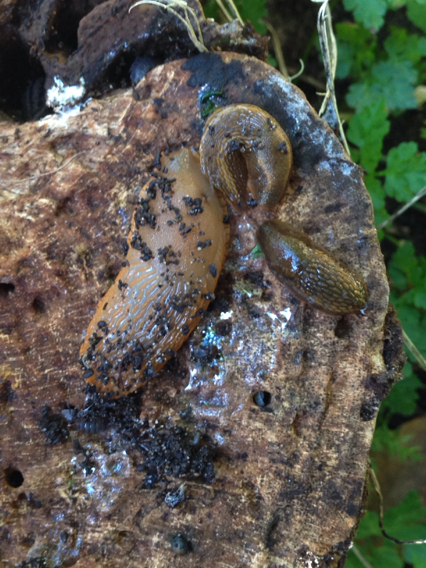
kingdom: Animalia
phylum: Mollusca
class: Gastropoda
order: Stylommatophora
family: Arionidae
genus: Arion
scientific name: Arion rufus
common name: Chocolate arion
